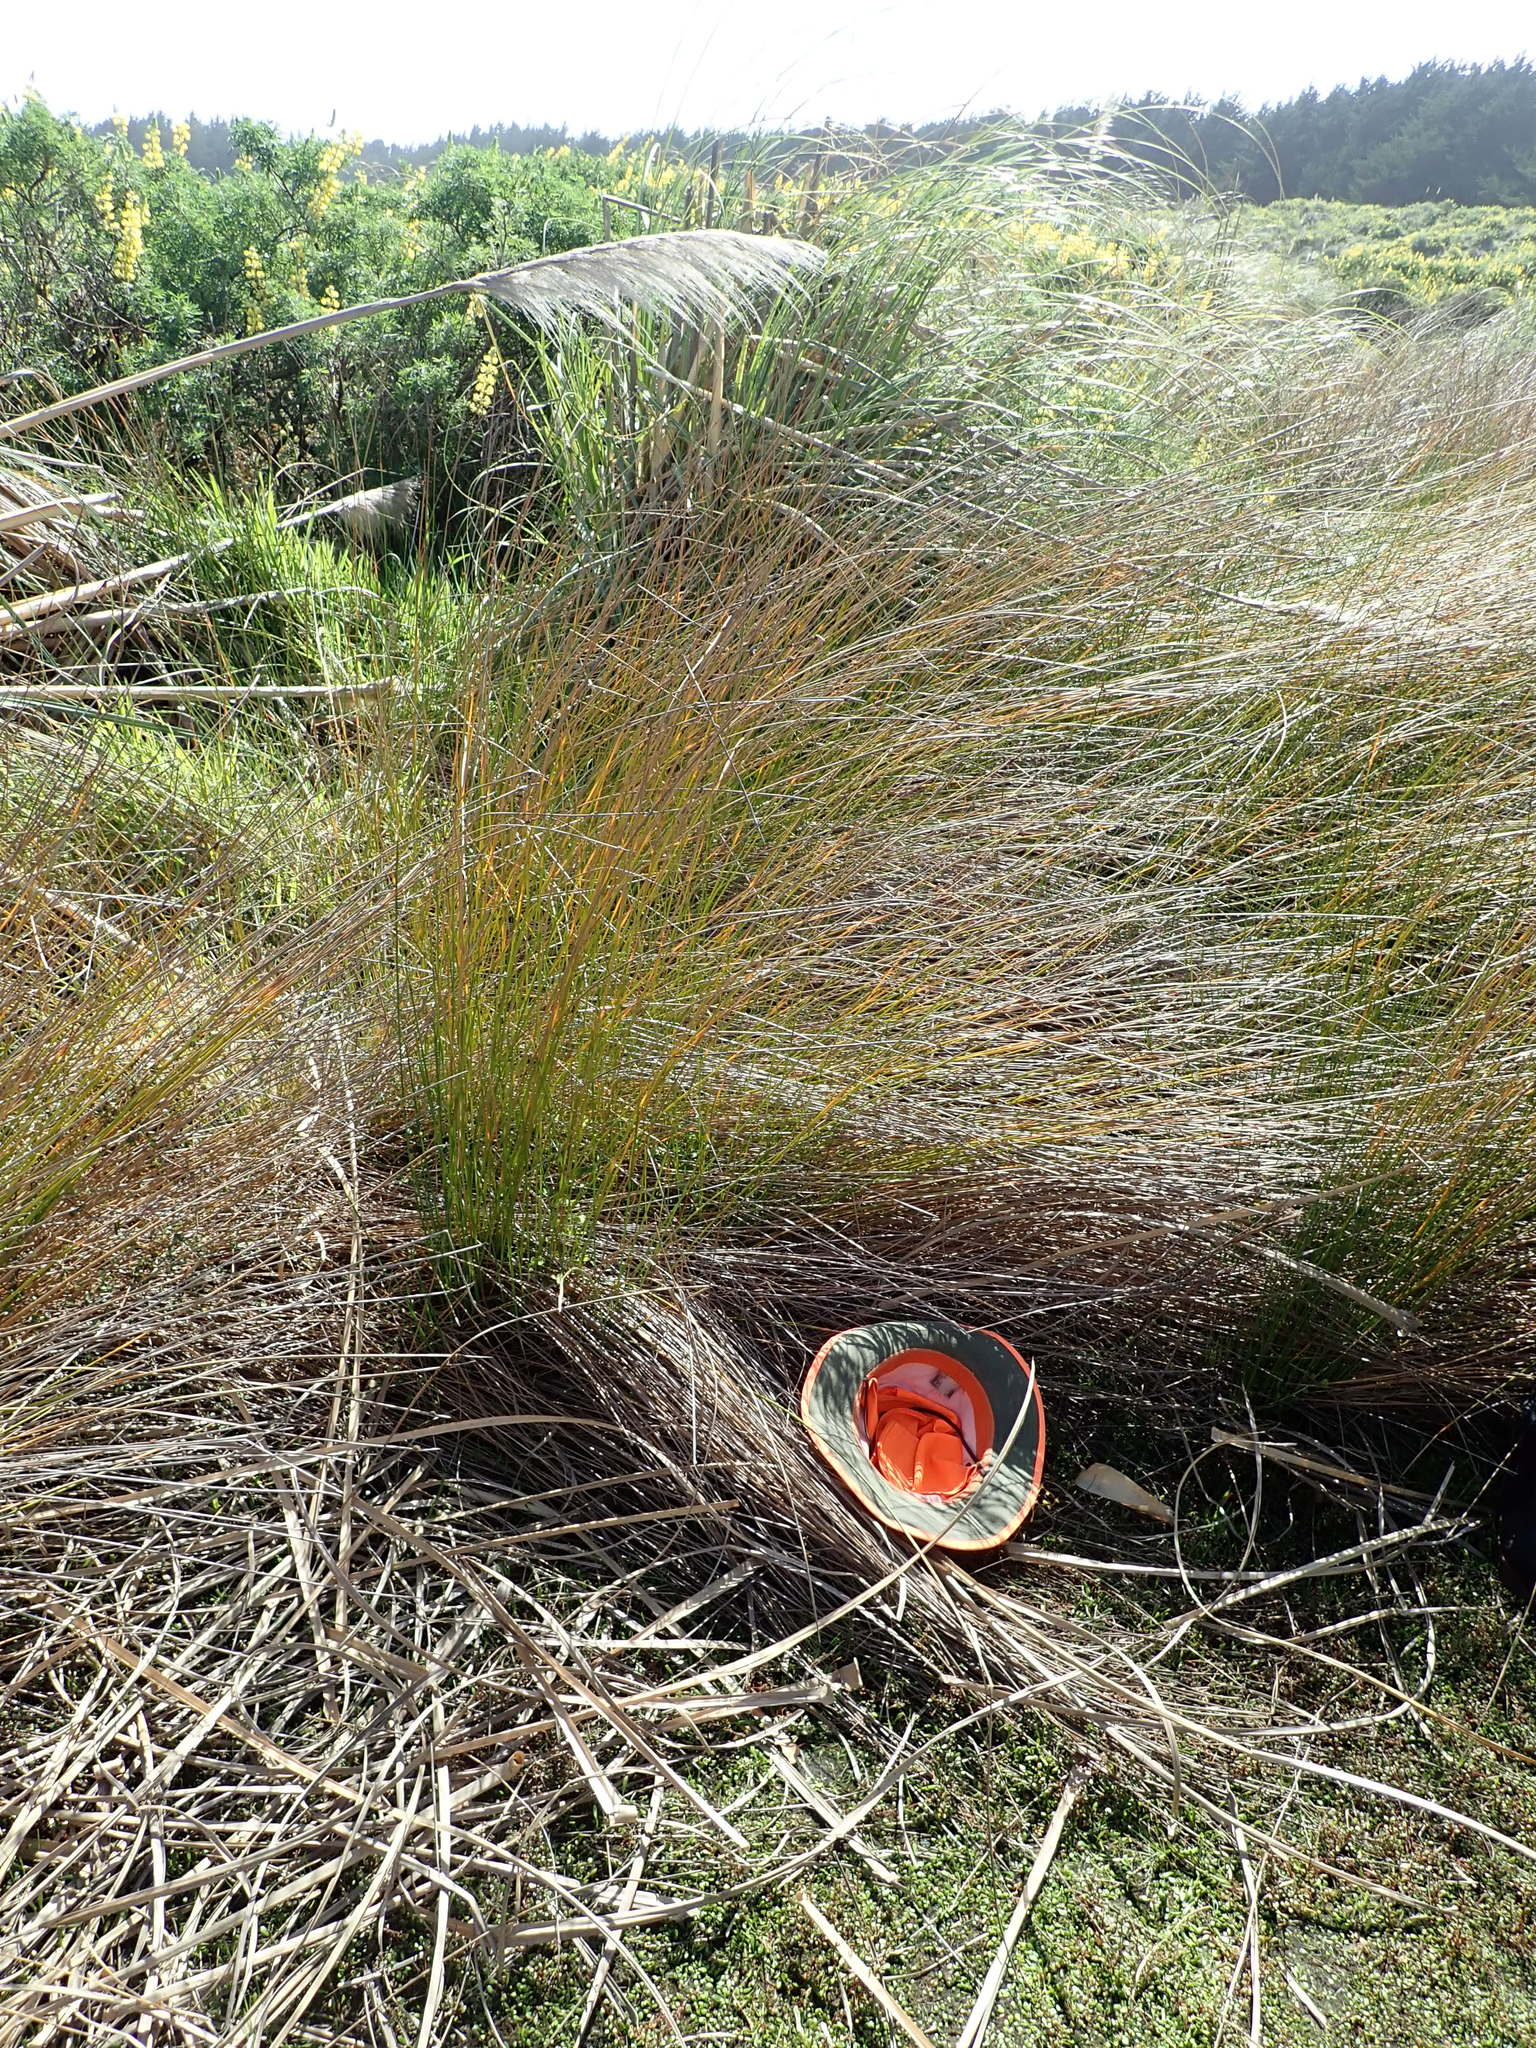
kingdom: Plantae
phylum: Tracheophyta
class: Magnoliopsida
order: Apiales
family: Apiaceae
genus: Apium
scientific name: Apium prostratum
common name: Prostrate marshwort
